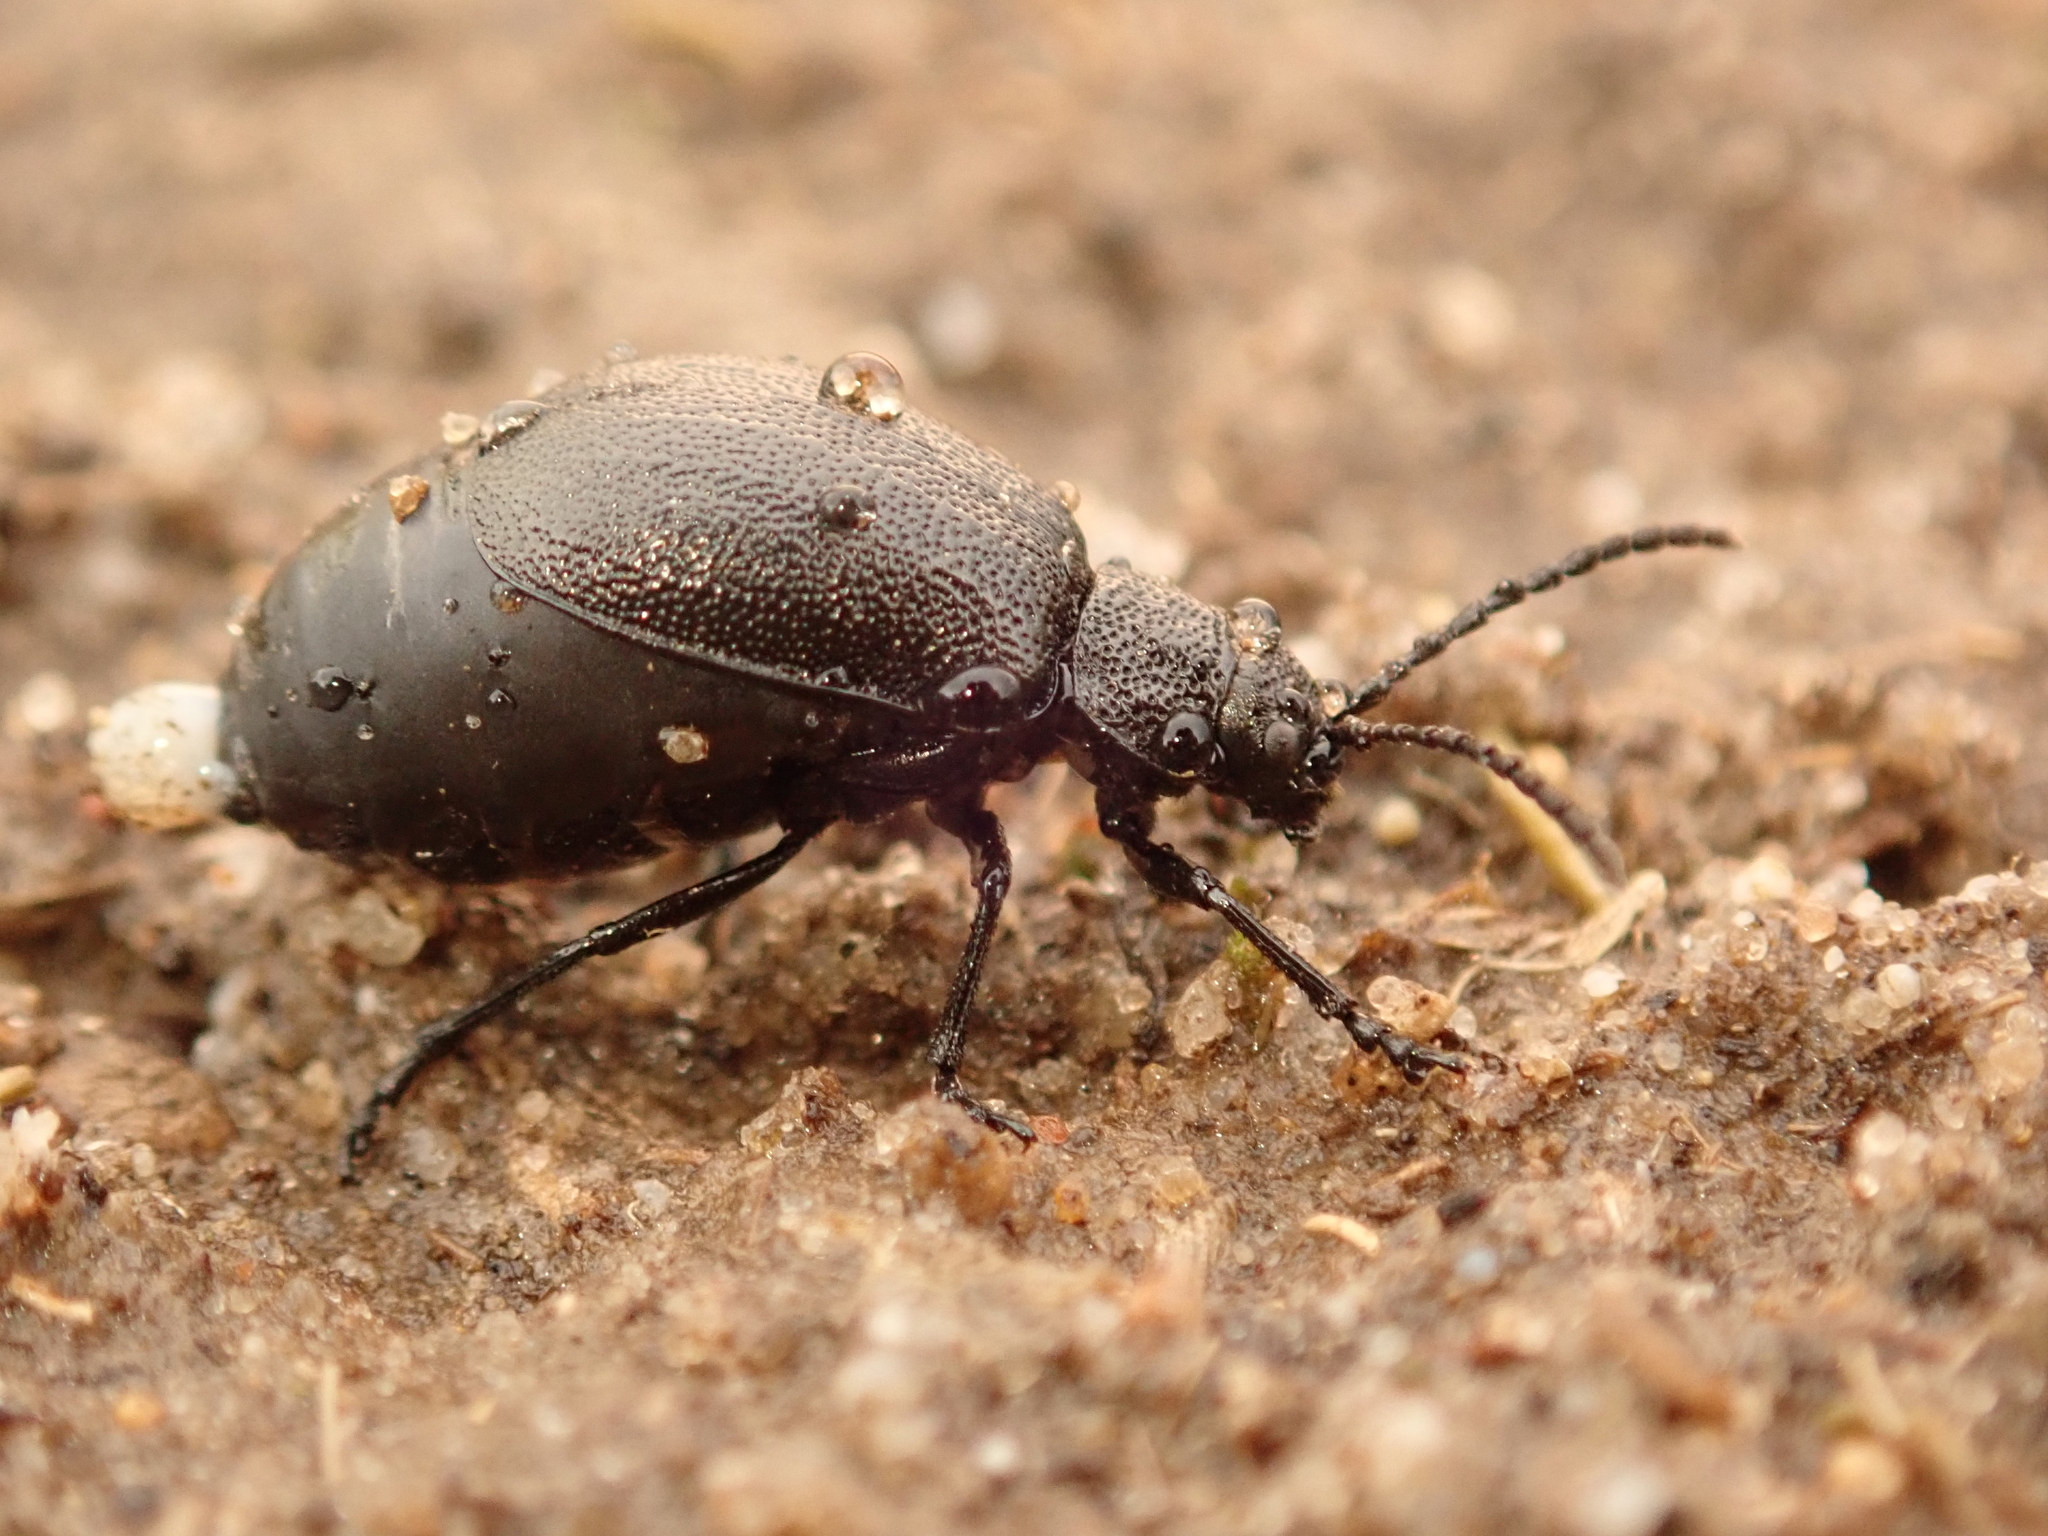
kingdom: Animalia
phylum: Arthropoda
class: Insecta
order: Coleoptera
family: Chrysomelidae
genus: Galeruca
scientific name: Galeruca tanaceti
